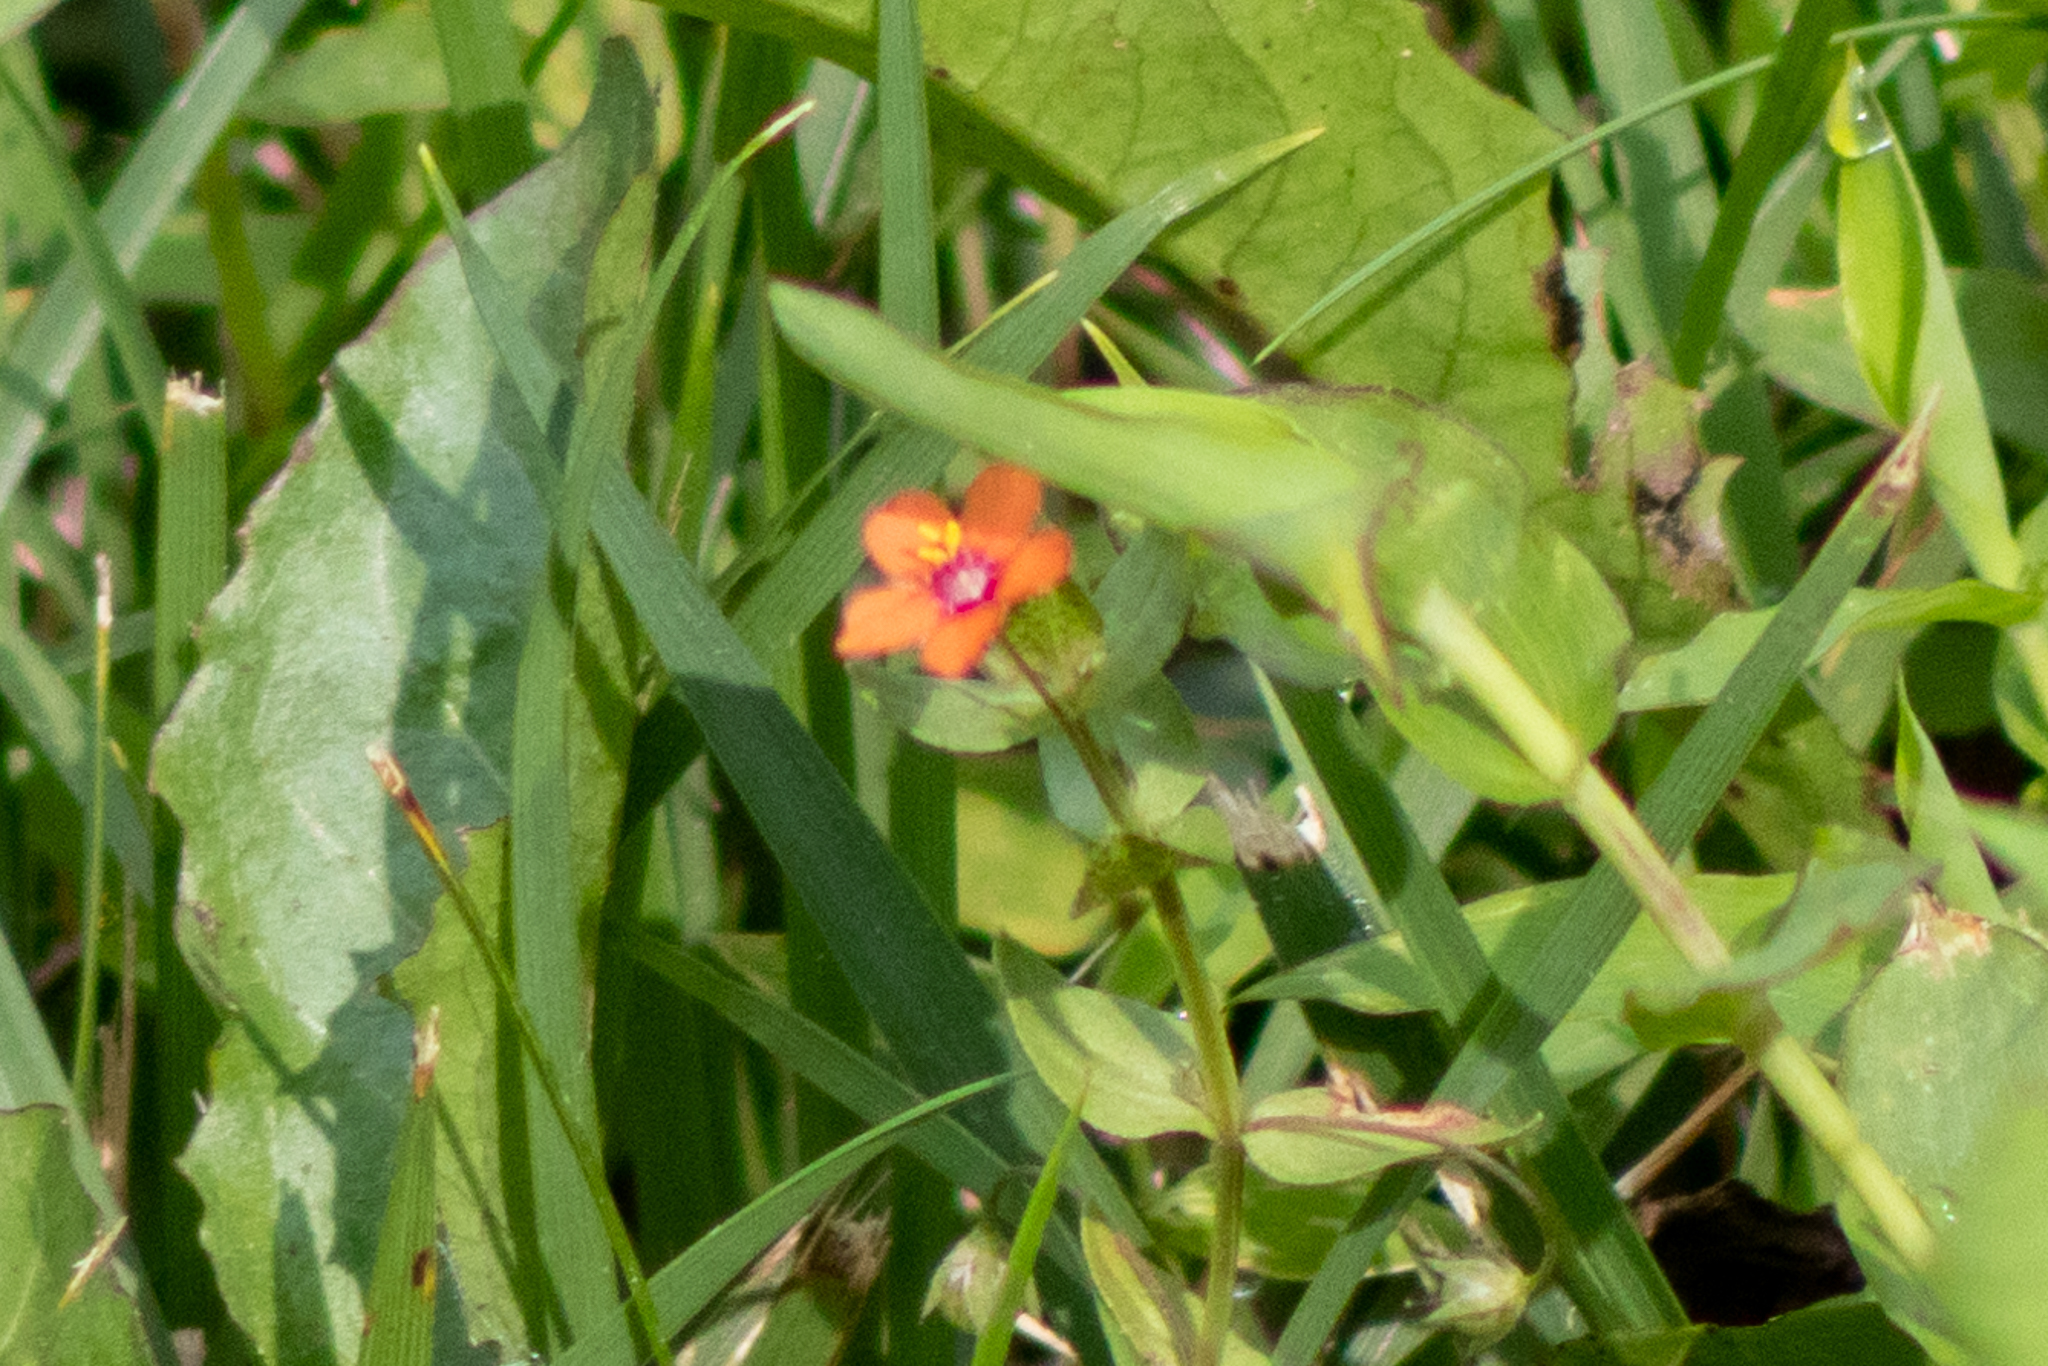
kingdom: Plantae
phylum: Tracheophyta
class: Magnoliopsida
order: Ericales
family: Primulaceae
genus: Lysimachia
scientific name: Lysimachia arvensis
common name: Scarlet pimpernel
